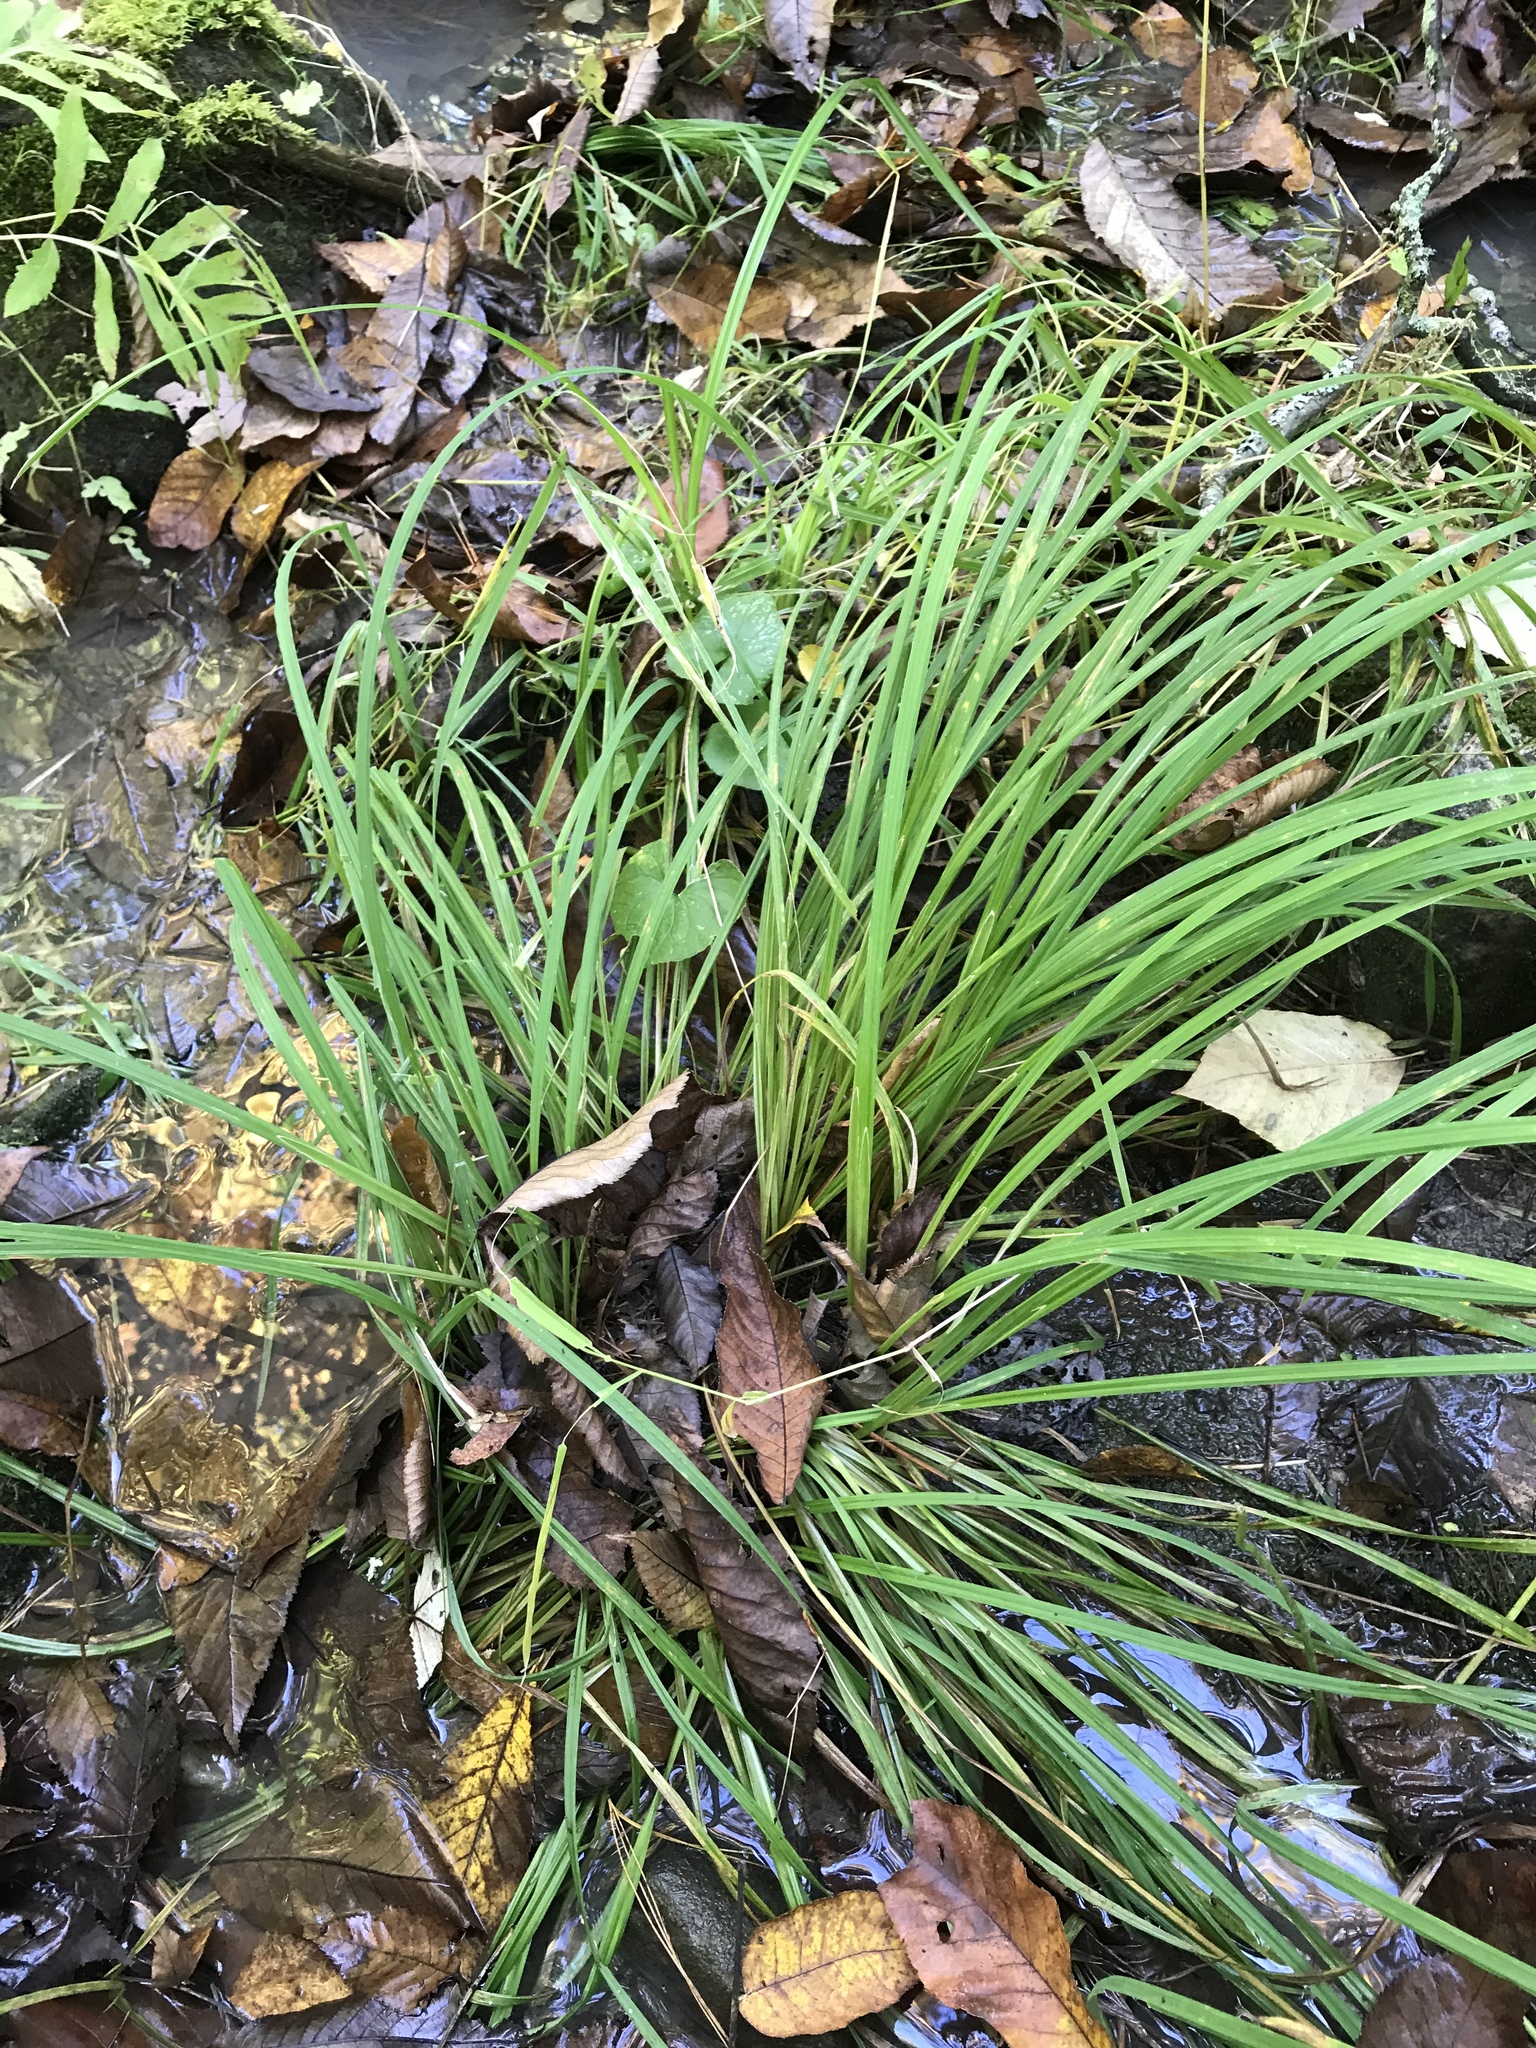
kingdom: Plantae
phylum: Tracheophyta
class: Liliopsida
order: Poales
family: Cyperaceae
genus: Carex
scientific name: Carex prasina
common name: Drooping sedge
